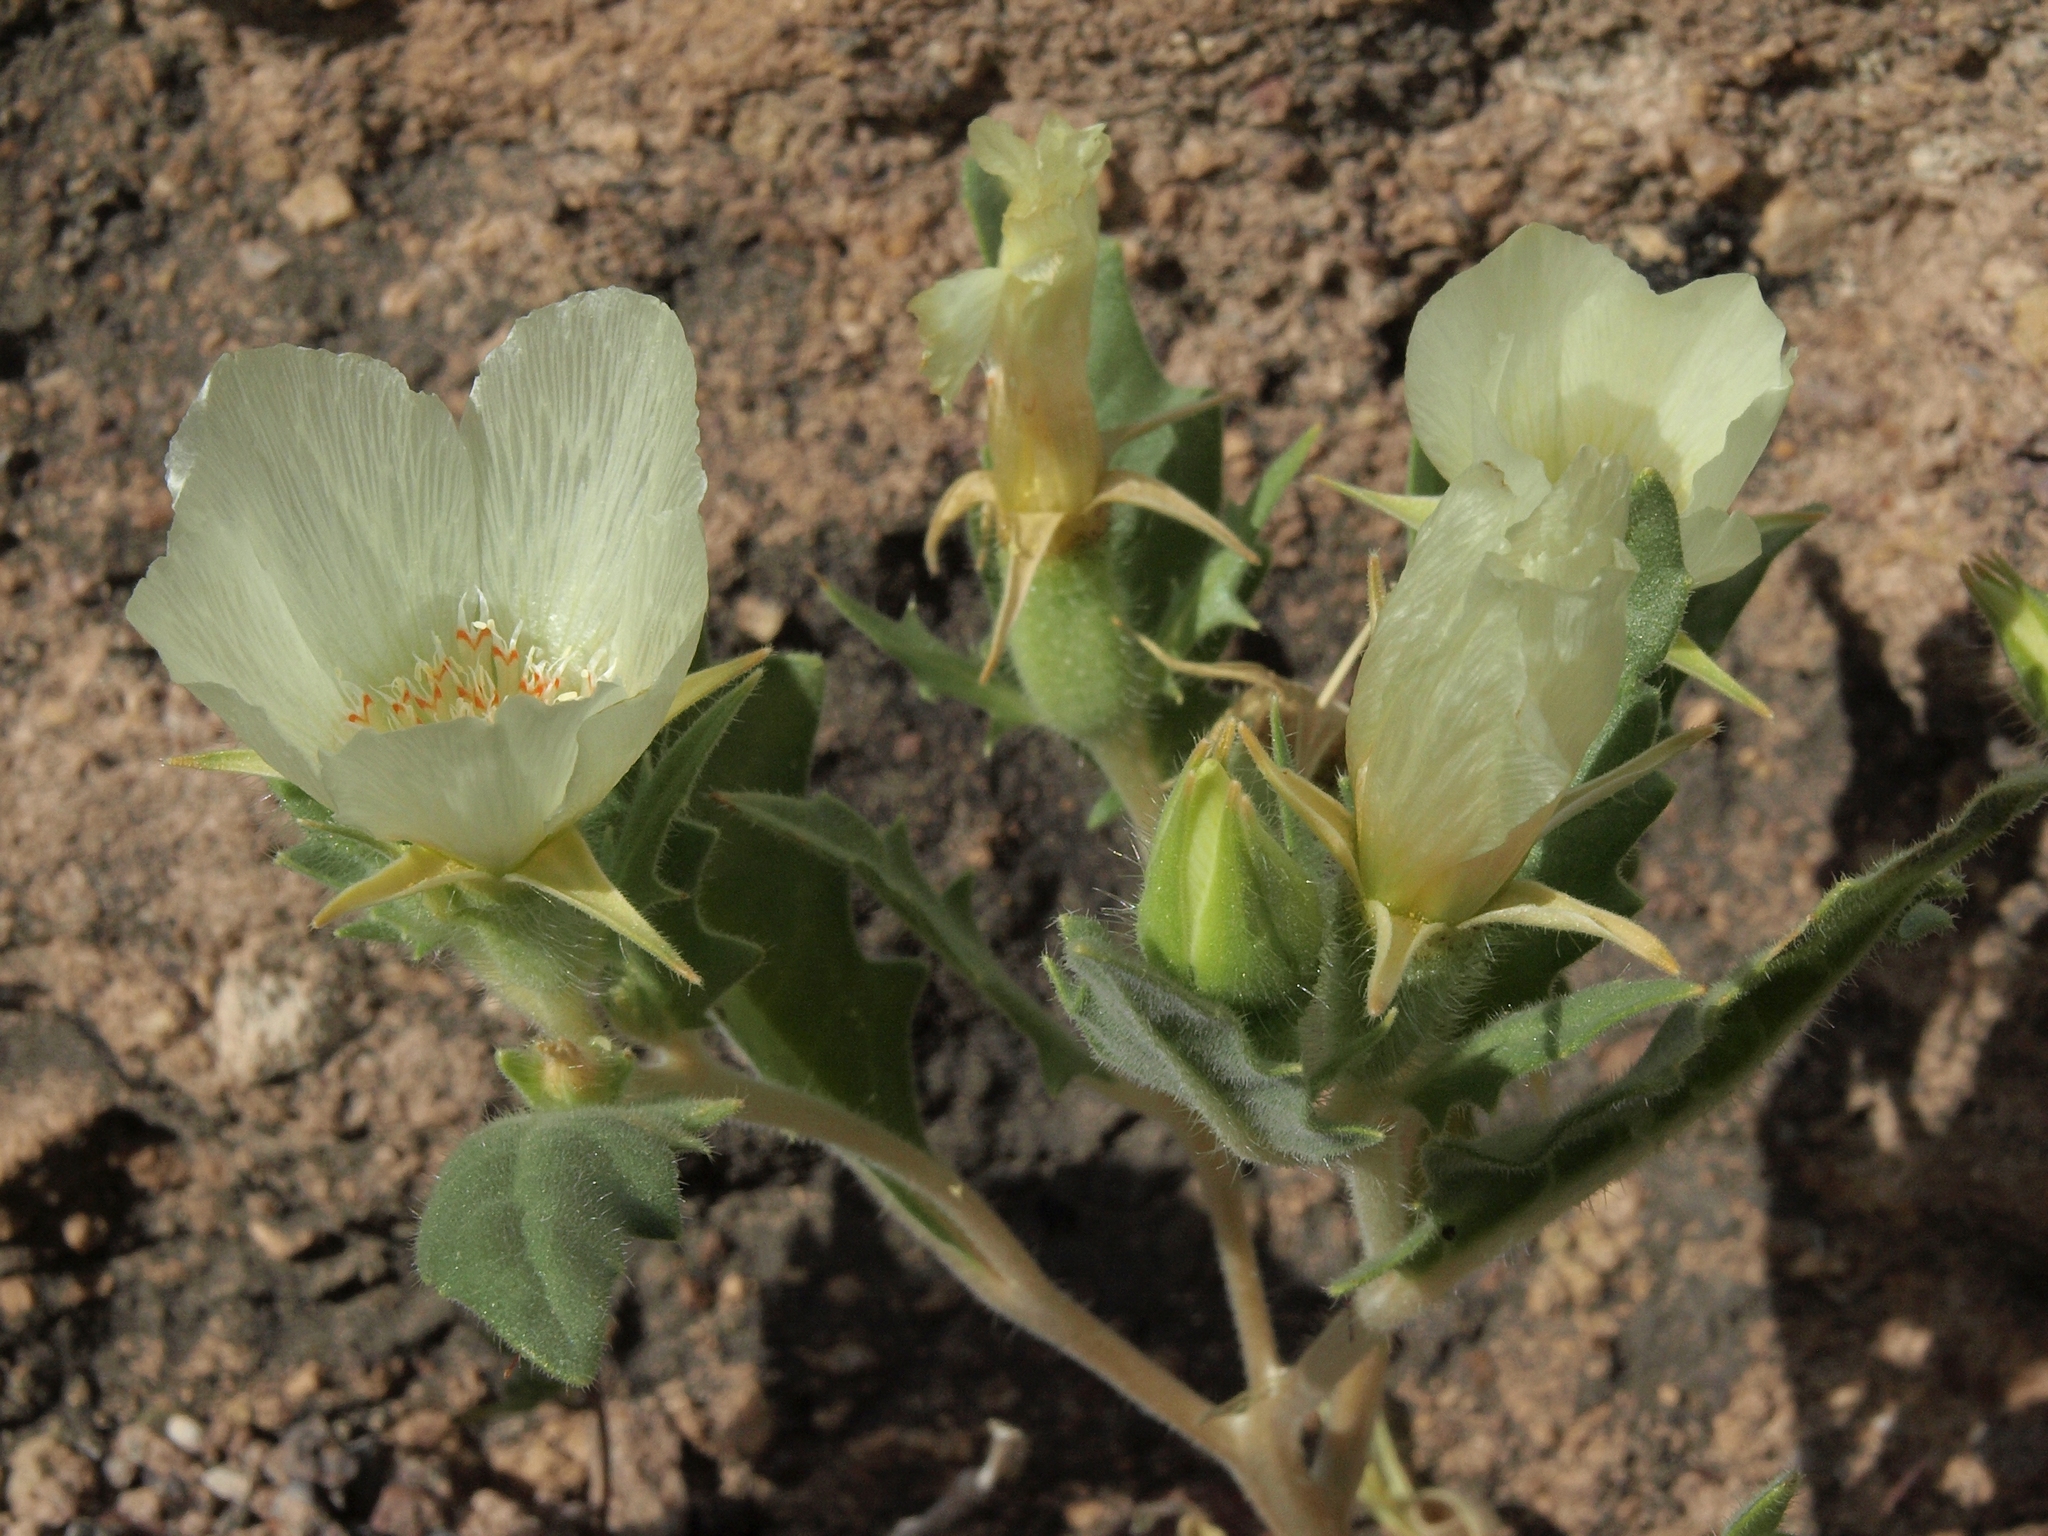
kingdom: Plantae
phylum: Tracheophyta
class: Magnoliopsida
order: Cornales
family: Loasaceae
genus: Mentzelia
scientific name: Mentzelia tricuspis
